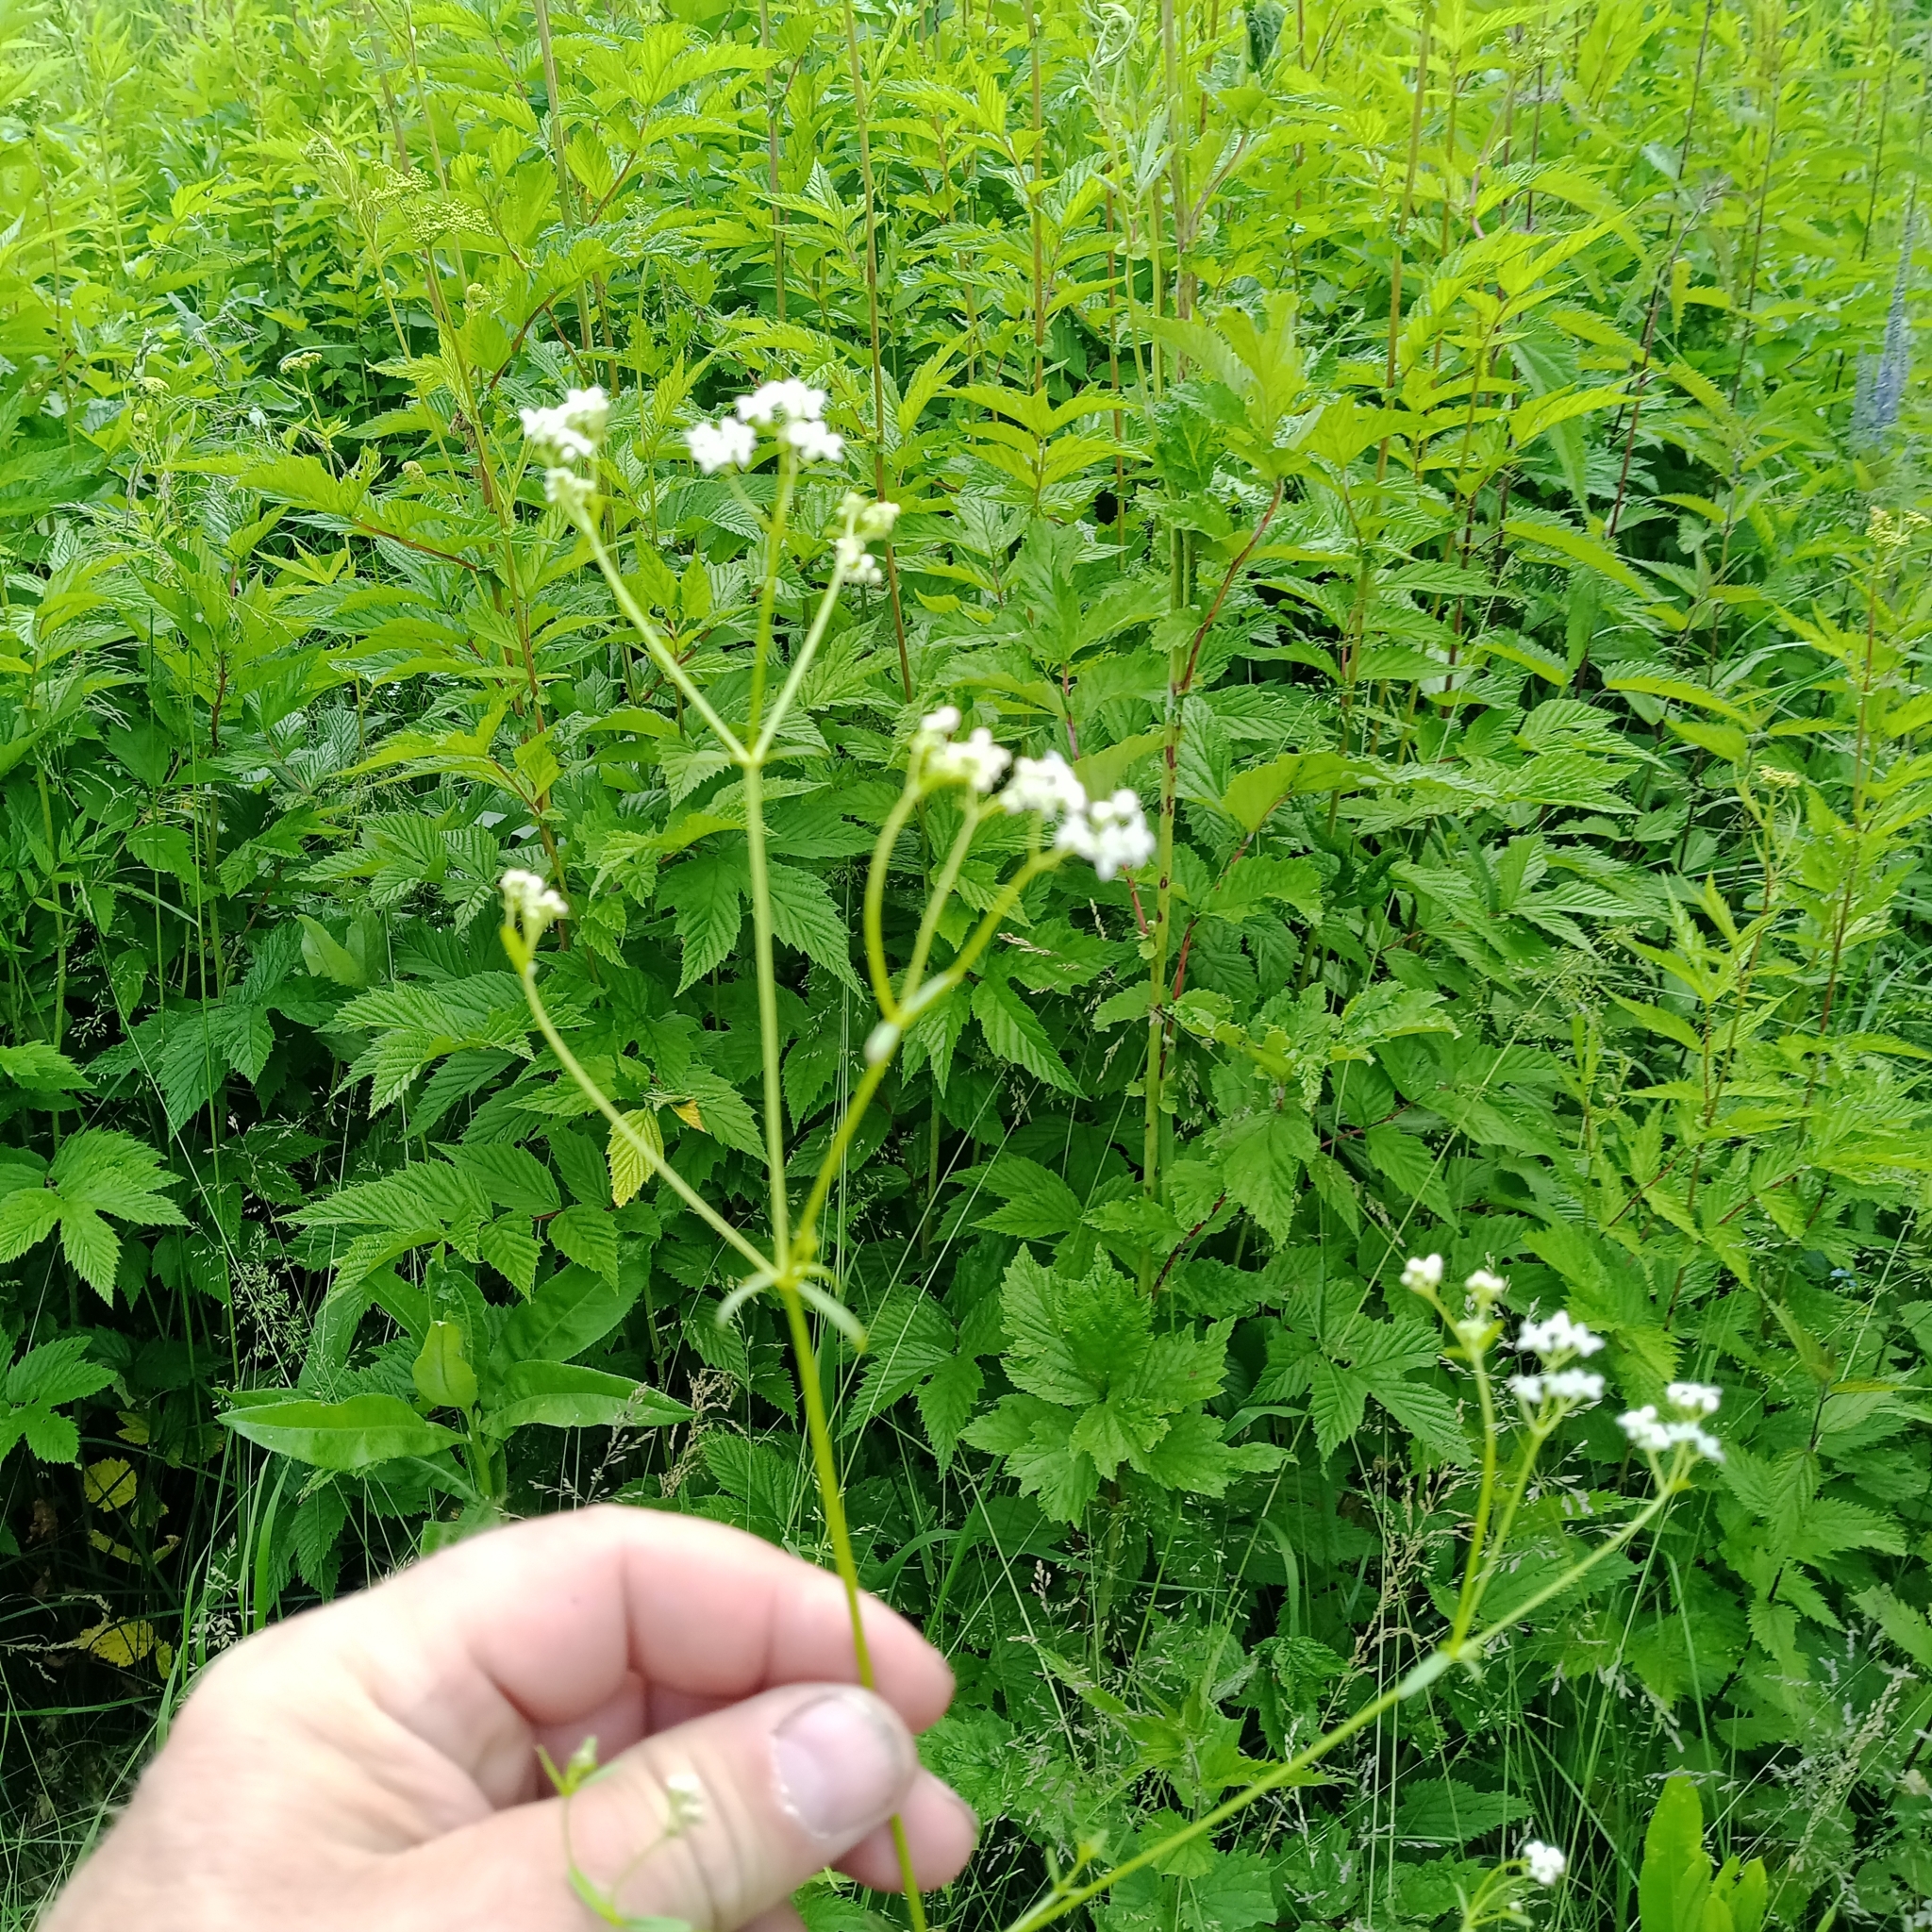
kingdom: Plantae
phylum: Tracheophyta
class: Magnoliopsida
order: Gentianales
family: Rubiaceae
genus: Galium
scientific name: Galium palustre
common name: Common marsh-bedstraw
